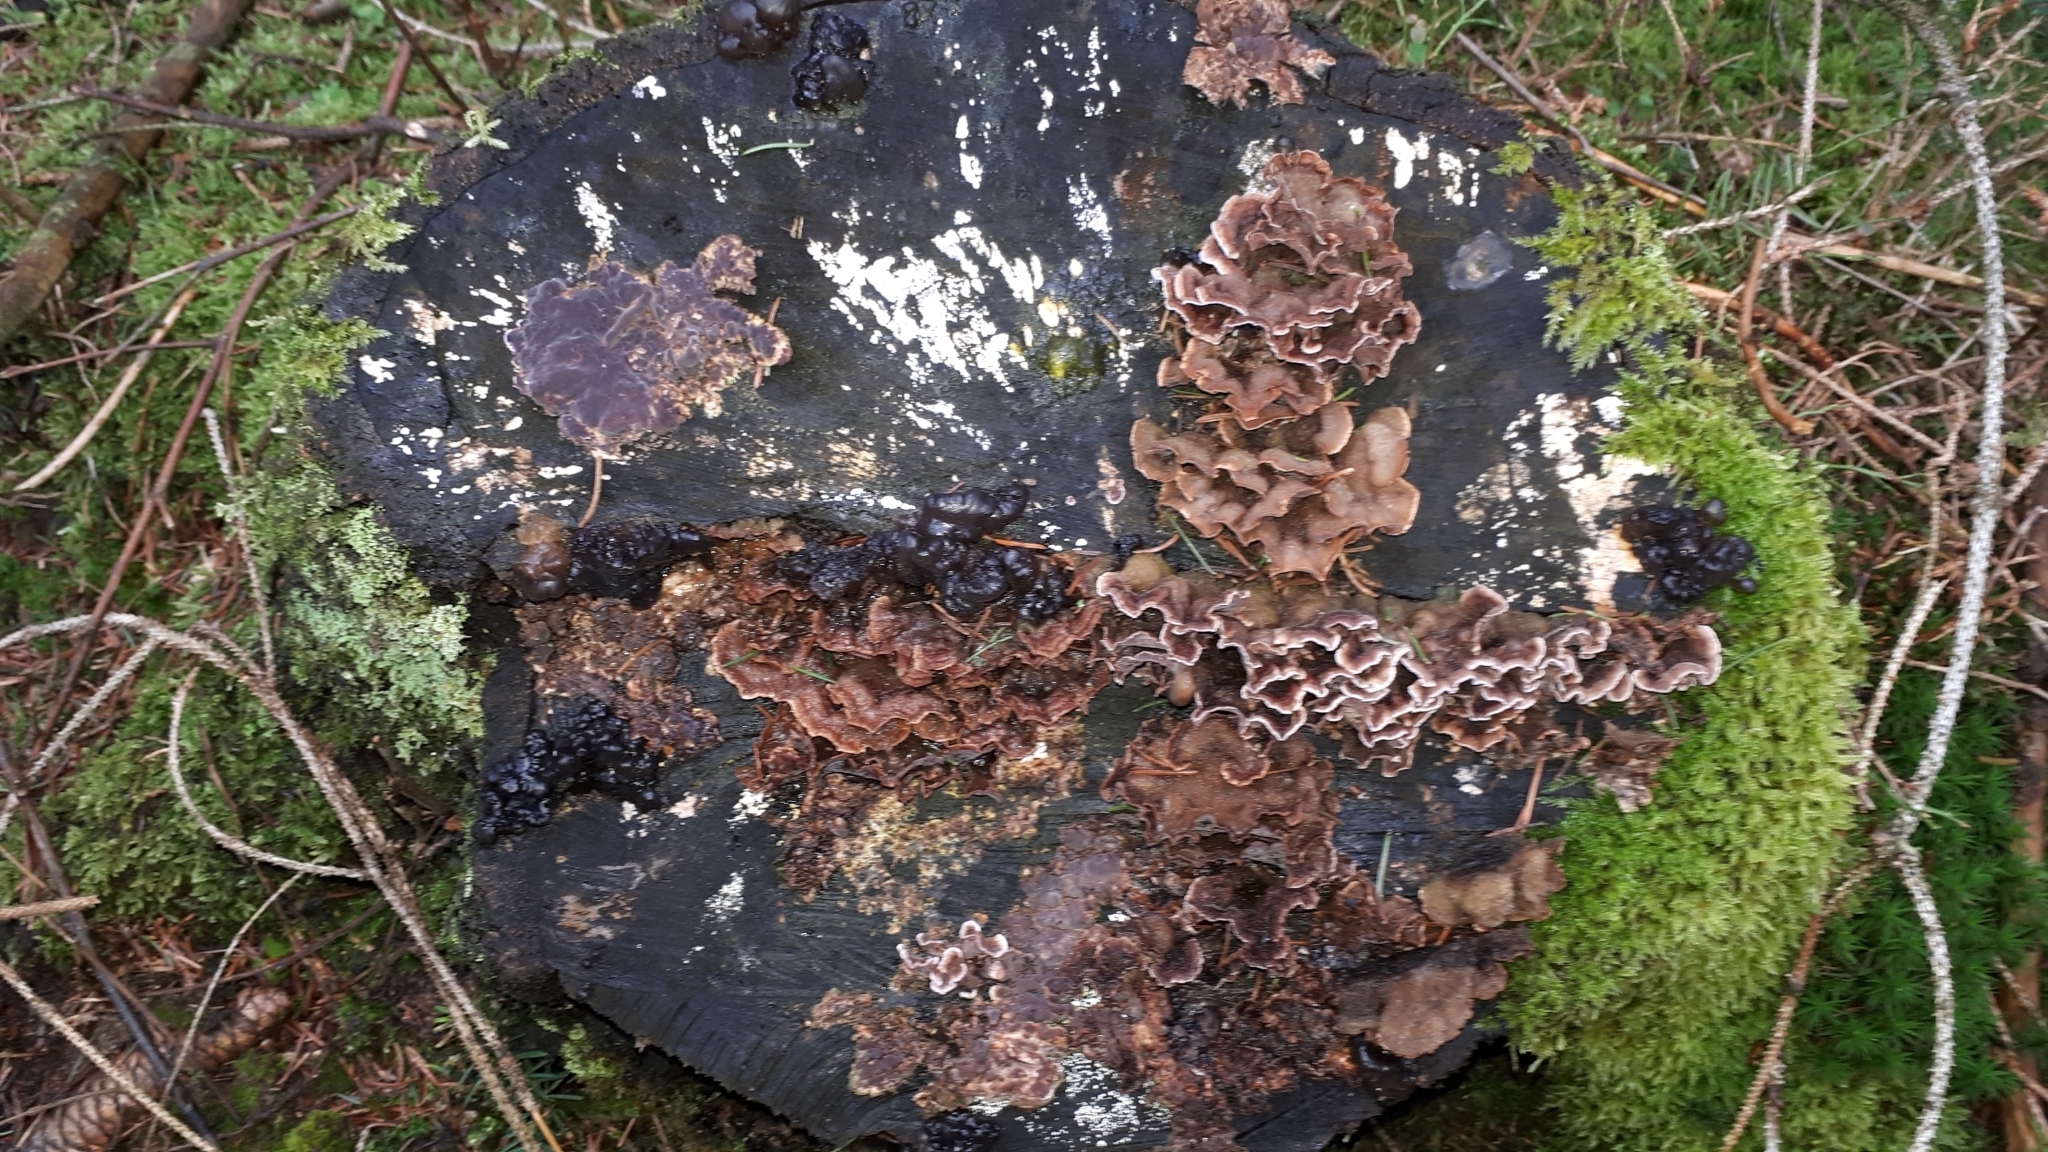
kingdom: Fungi
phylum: Basidiomycota
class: Agaricomycetes
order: Agaricales
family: Cyphellaceae
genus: Chondrostereum
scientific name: Chondrostereum purpureum
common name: Silver leaf disease
